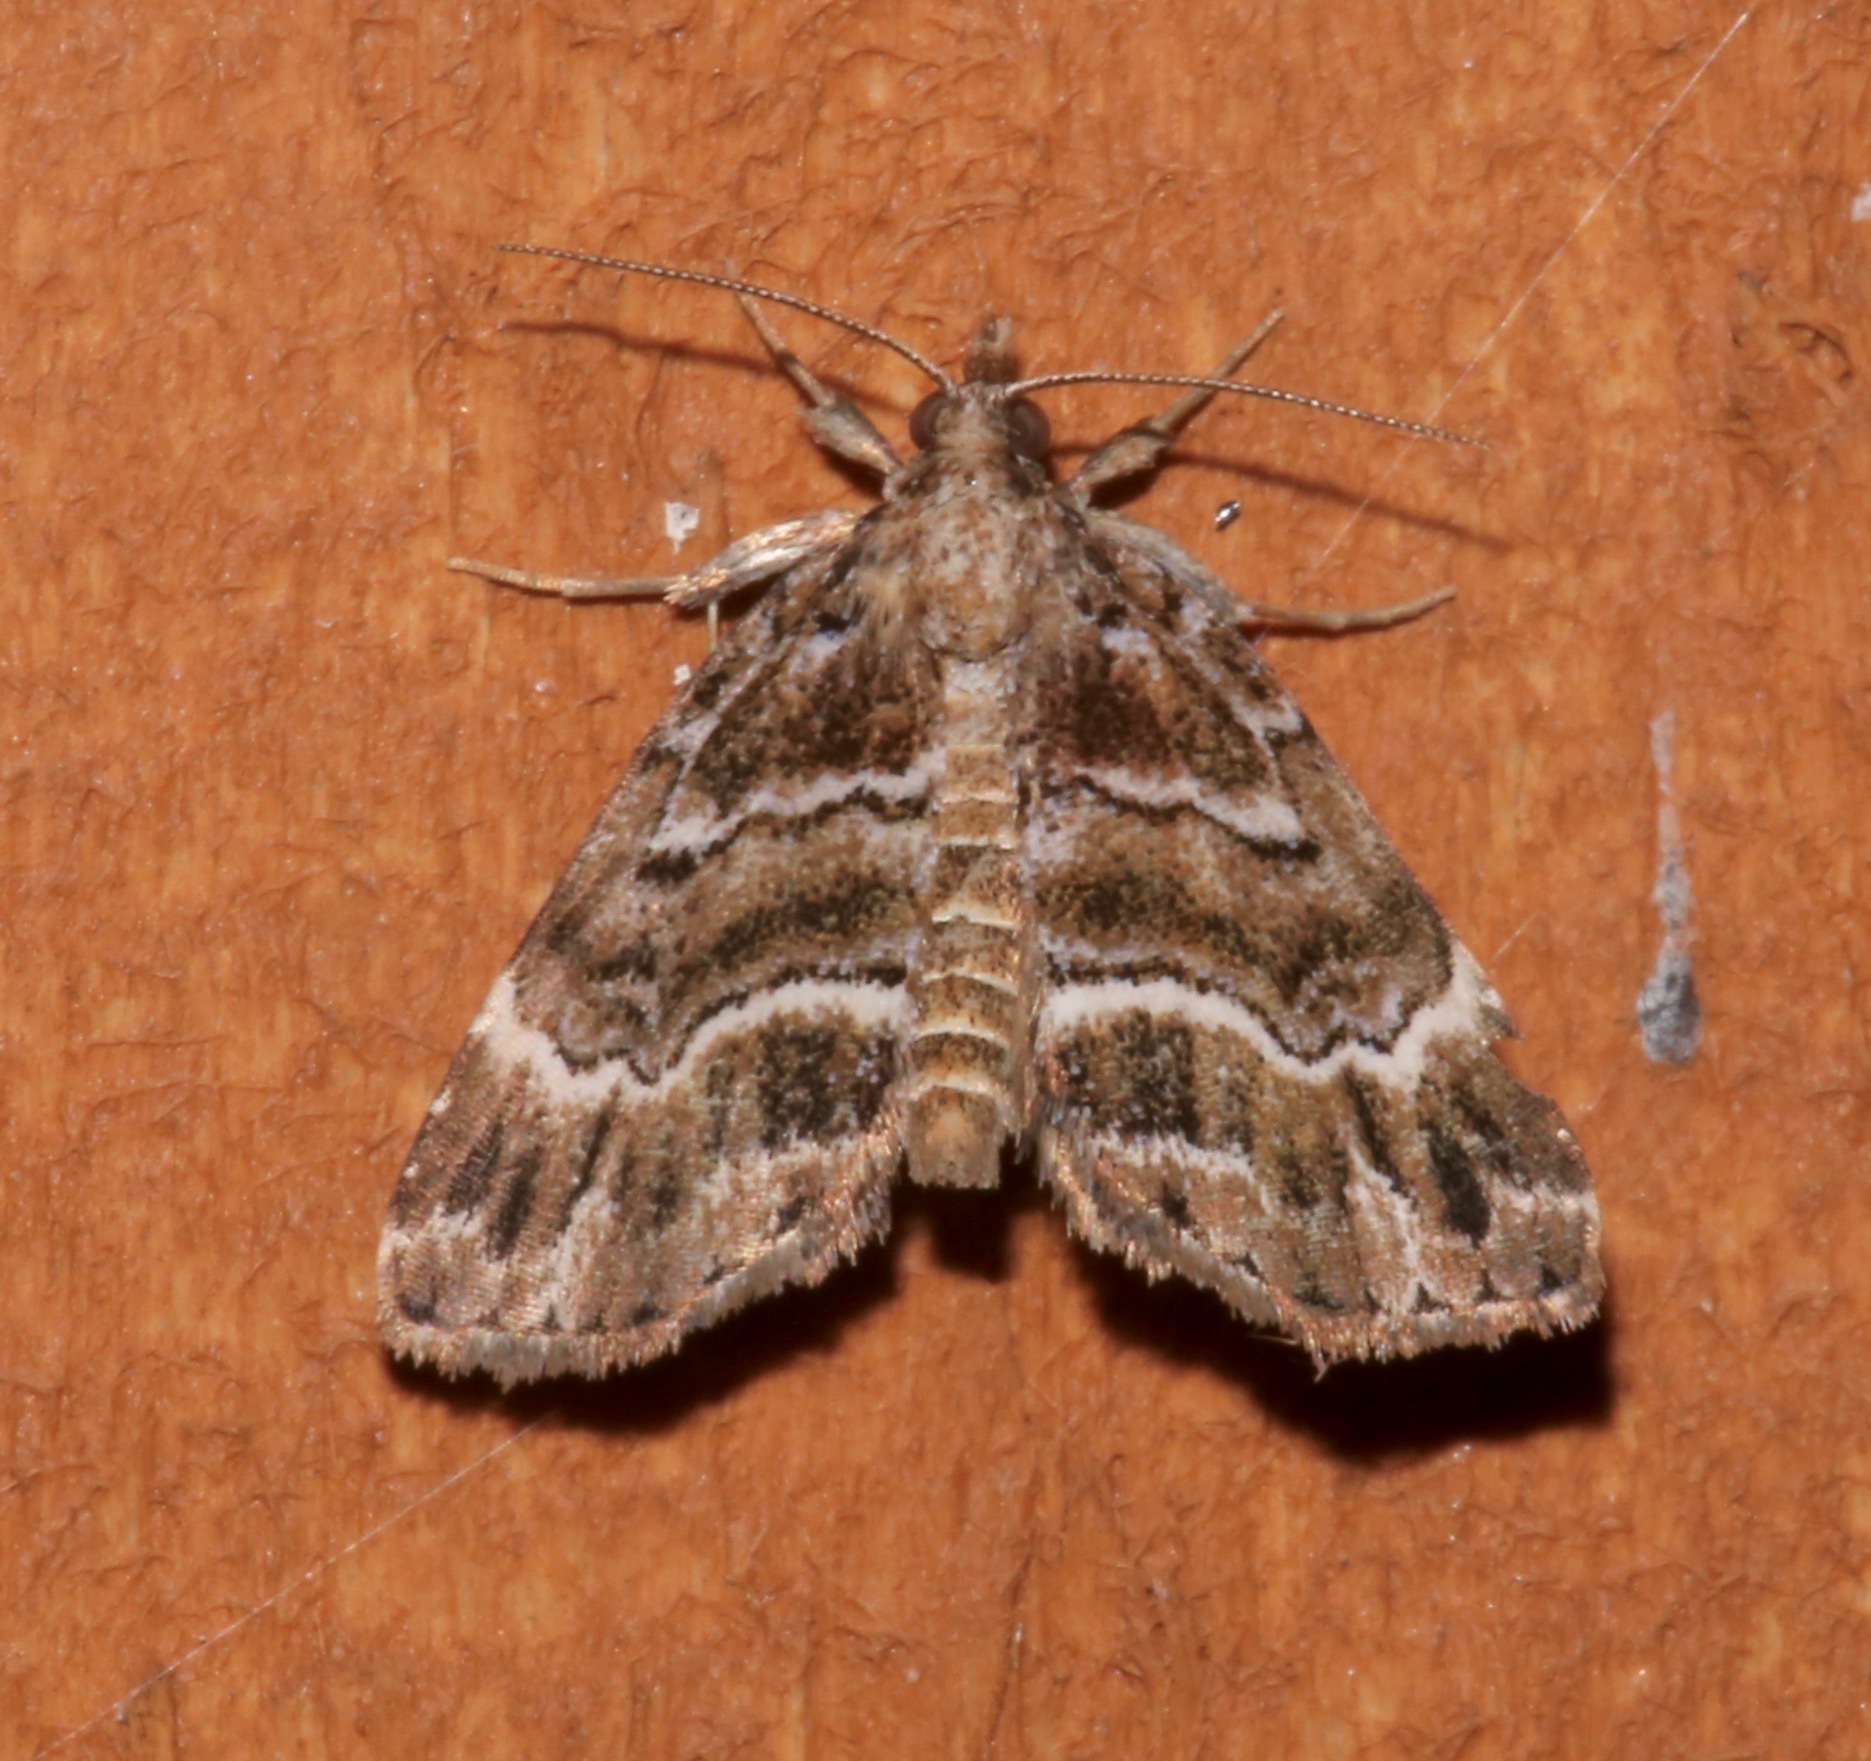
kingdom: Animalia
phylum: Arthropoda
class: Insecta
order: Lepidoptera
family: Erebidae
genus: Cutina
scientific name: Cutina arcuata
